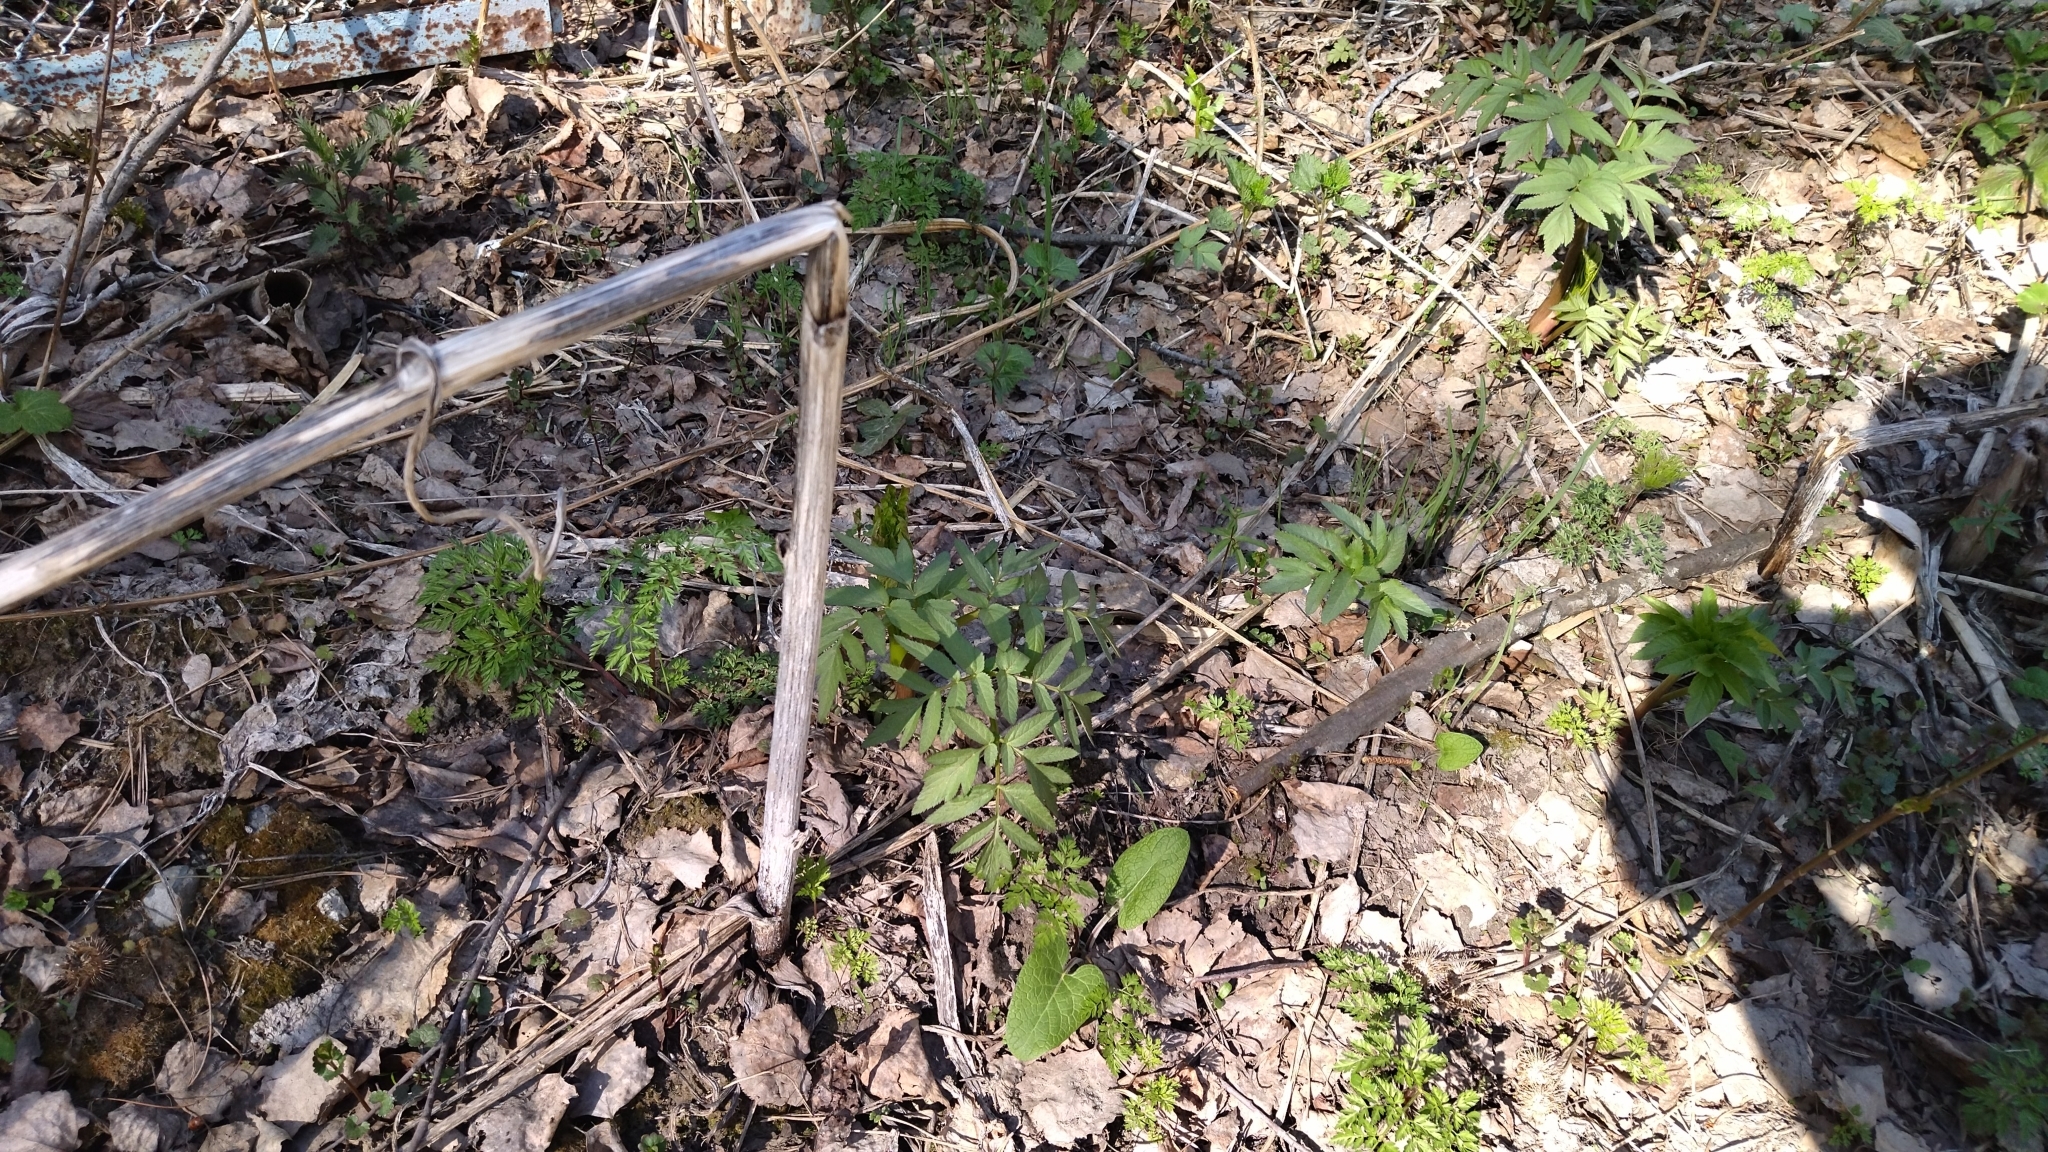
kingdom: Plantae
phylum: Tracheophyta
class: Magnoliopsida
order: Apiales
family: Apiaceae
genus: Angelica
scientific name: Angelica sylvestris
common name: Wild angelica
